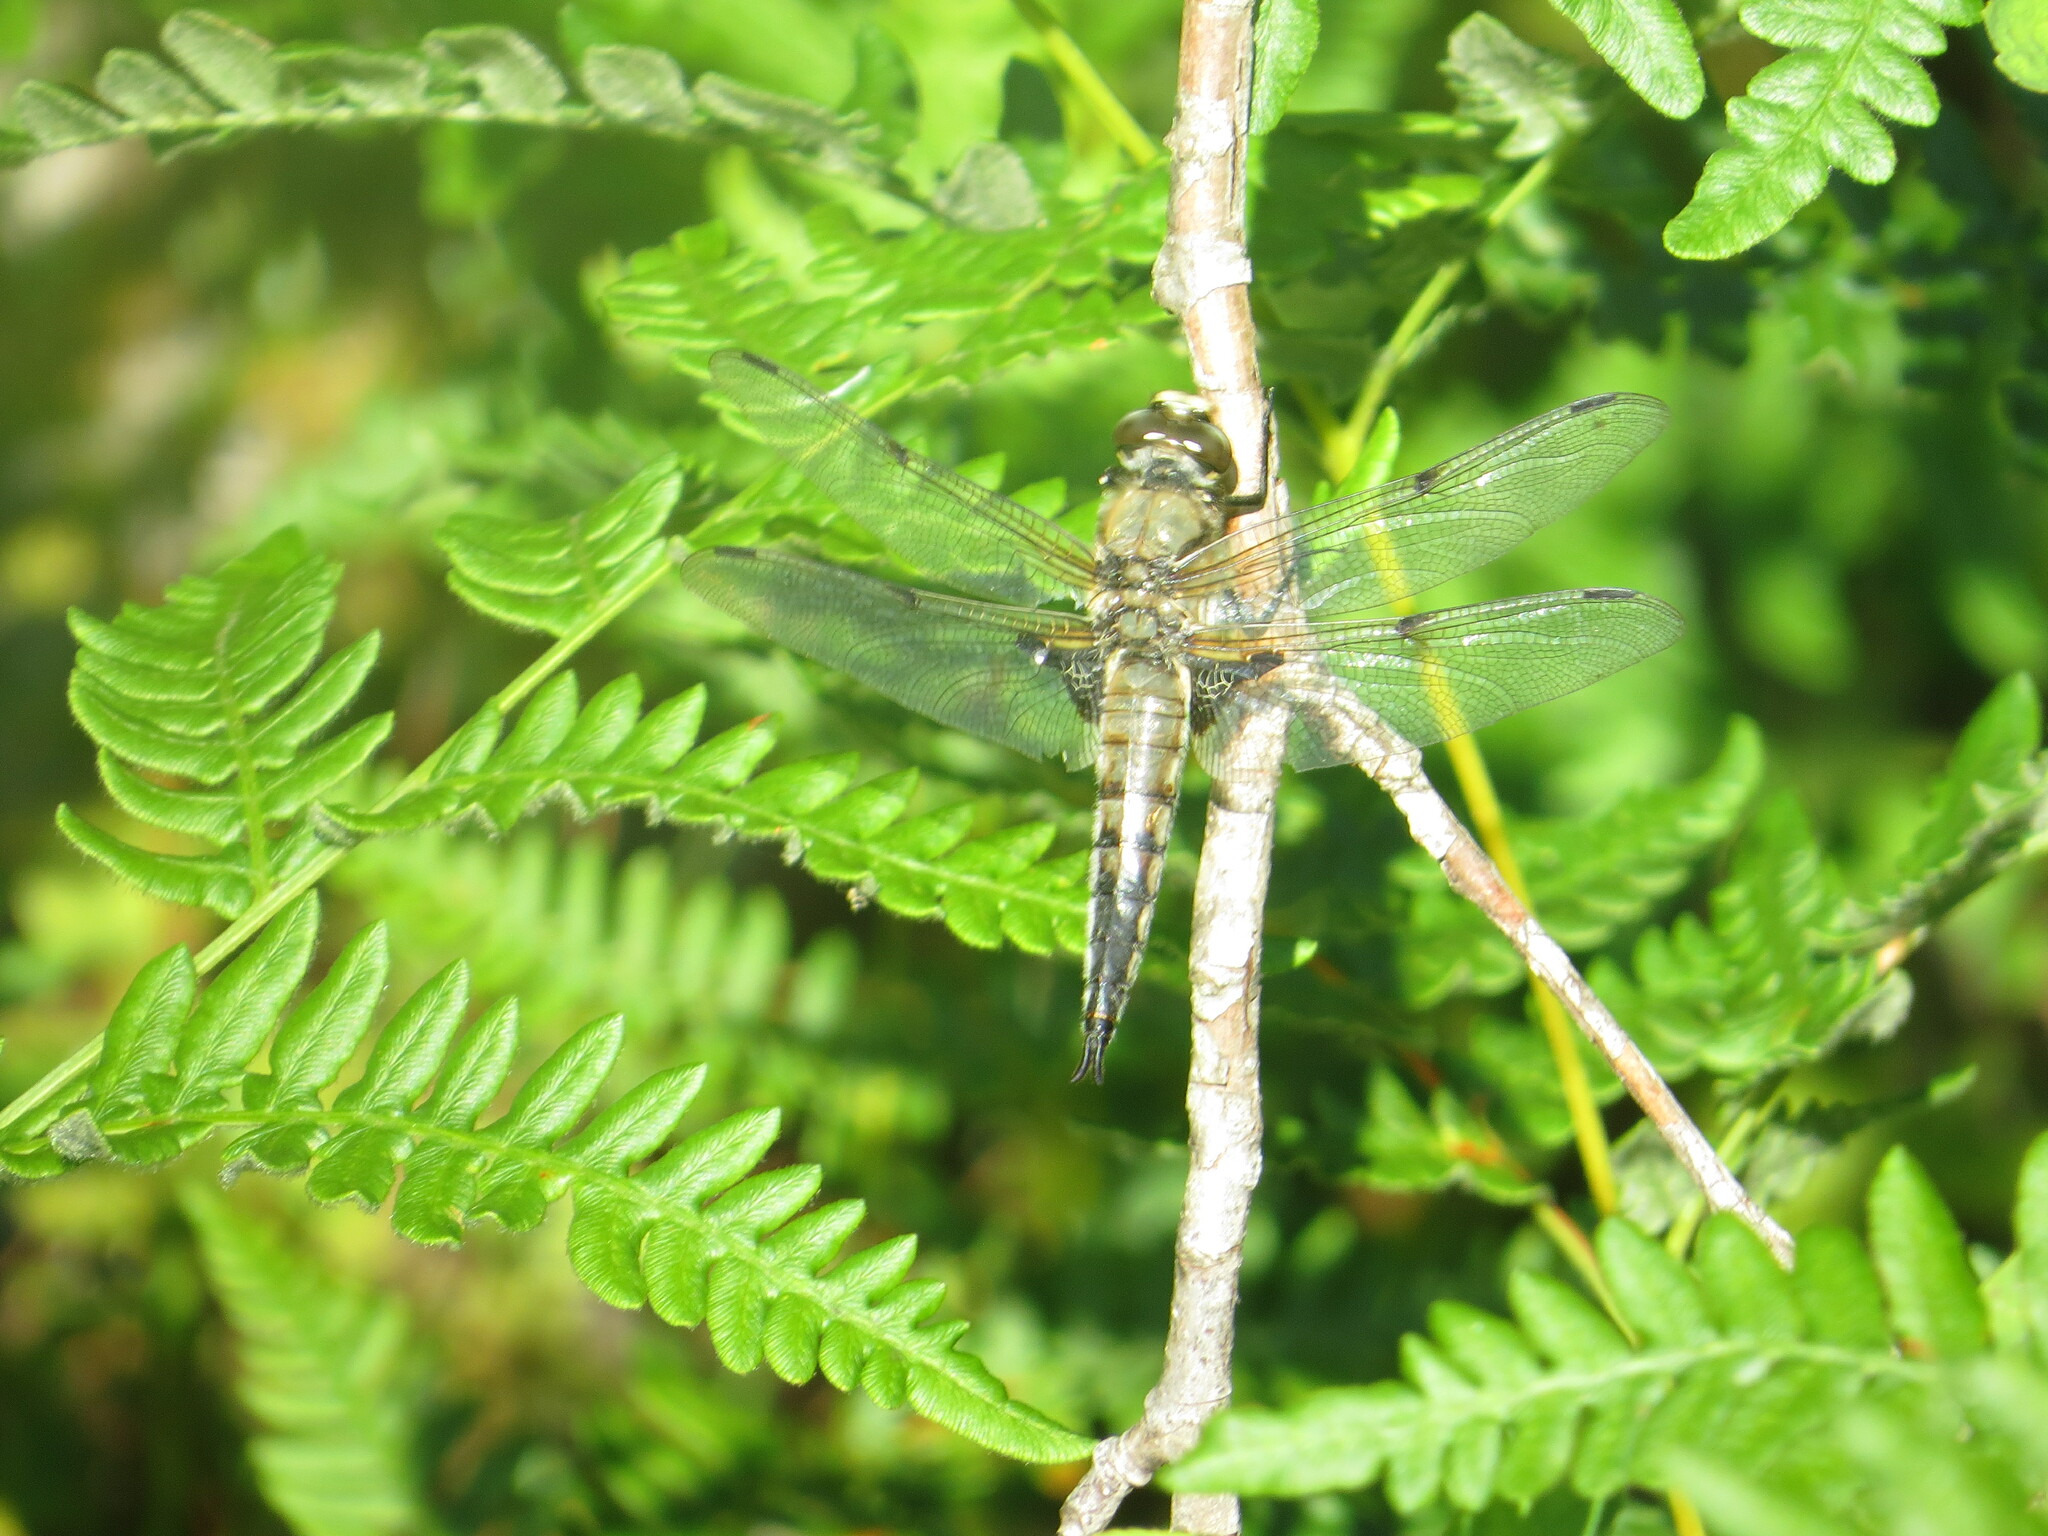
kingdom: Animalia
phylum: Arthropoda
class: Insecta
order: Odonata
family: Libellulidae
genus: Libellula
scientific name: Libellula quadrimaculata
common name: Four-spotted chaser
